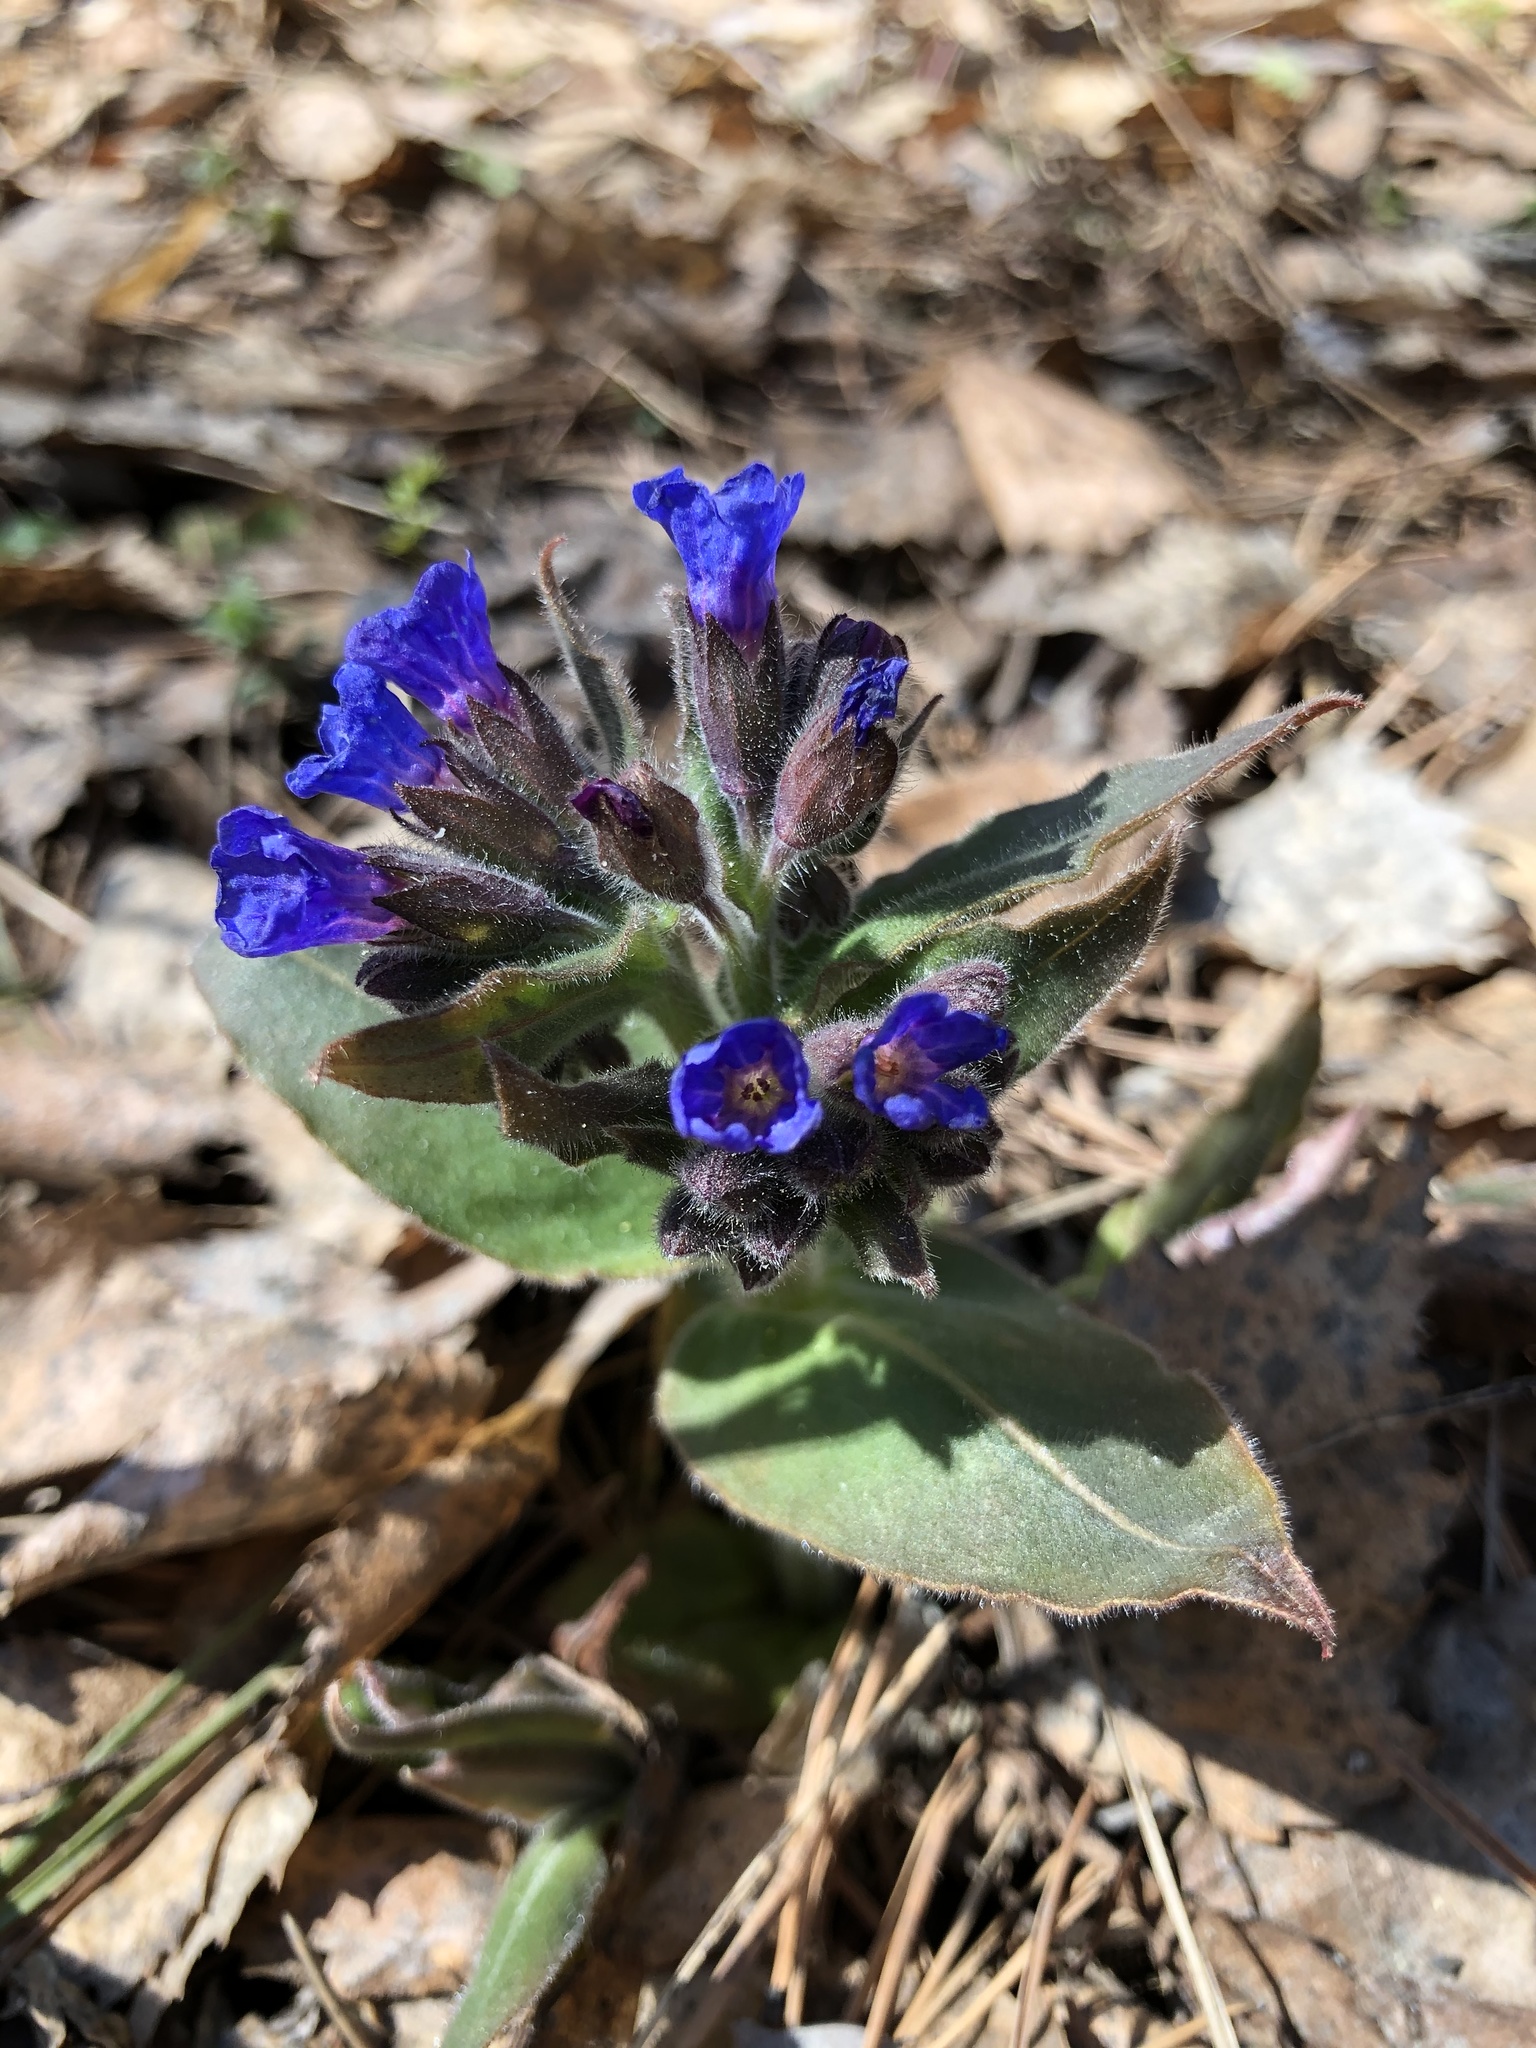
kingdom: Plantae
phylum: Tracheophyta
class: Magnoliopsida
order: Boraginales
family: Boraginaceae
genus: Pulmonaria
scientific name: Pulmonaria mollis
